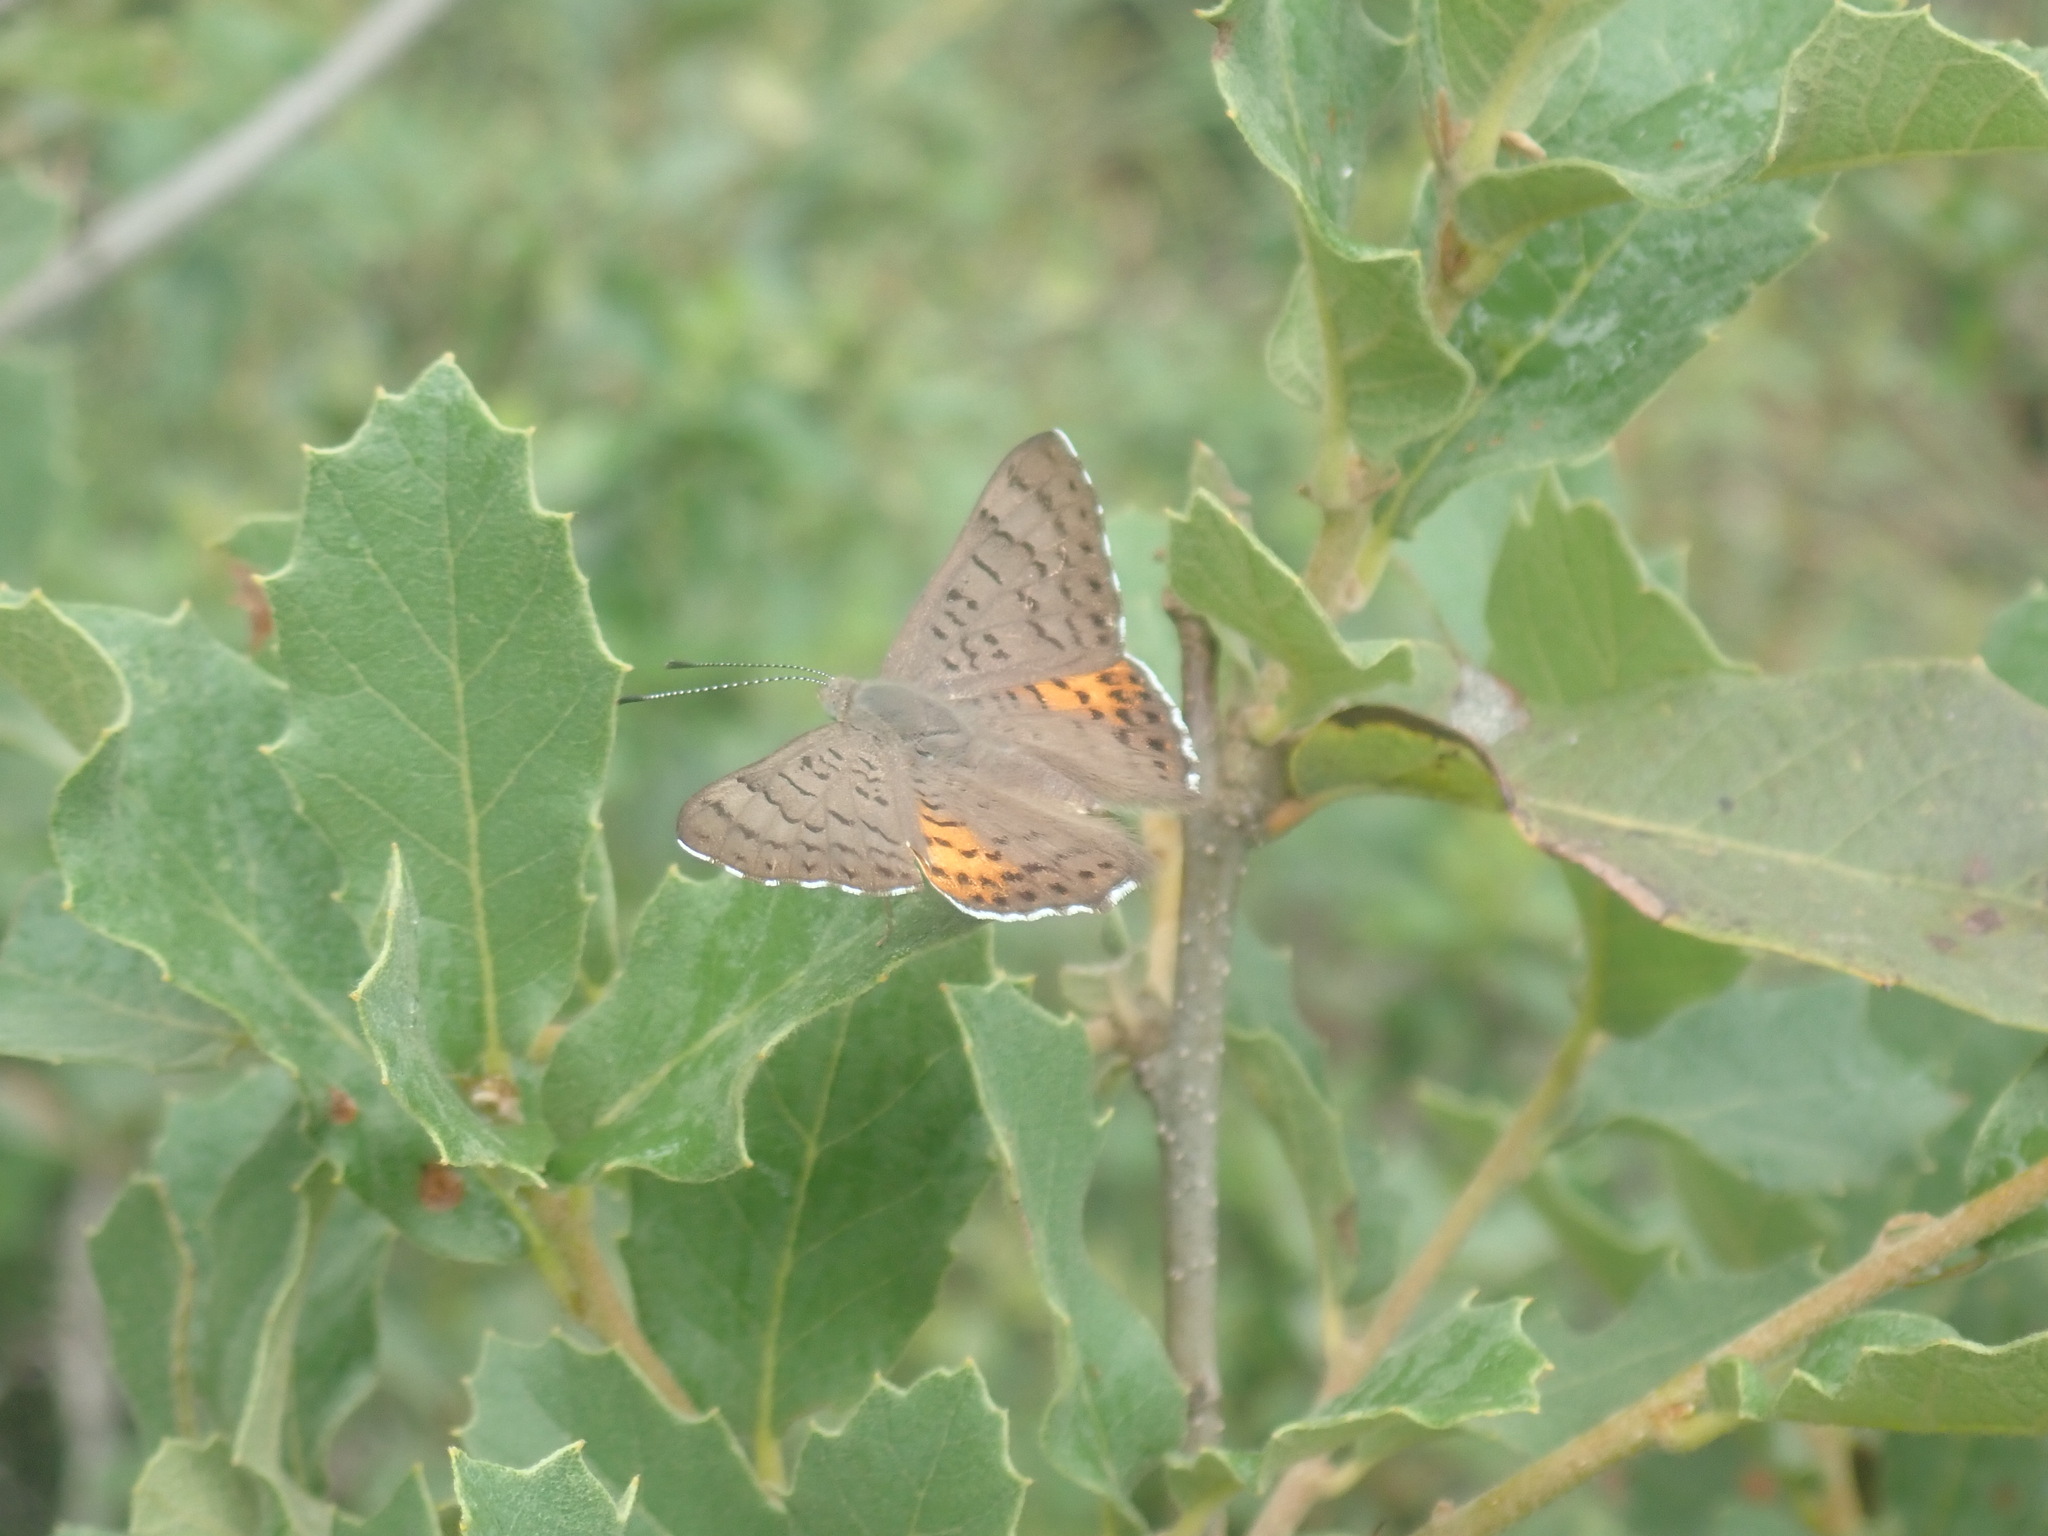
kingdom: Animalia
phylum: Arthropoda
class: Insecta
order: Lepidoptera
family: Riodinidae
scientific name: Riodinidae
